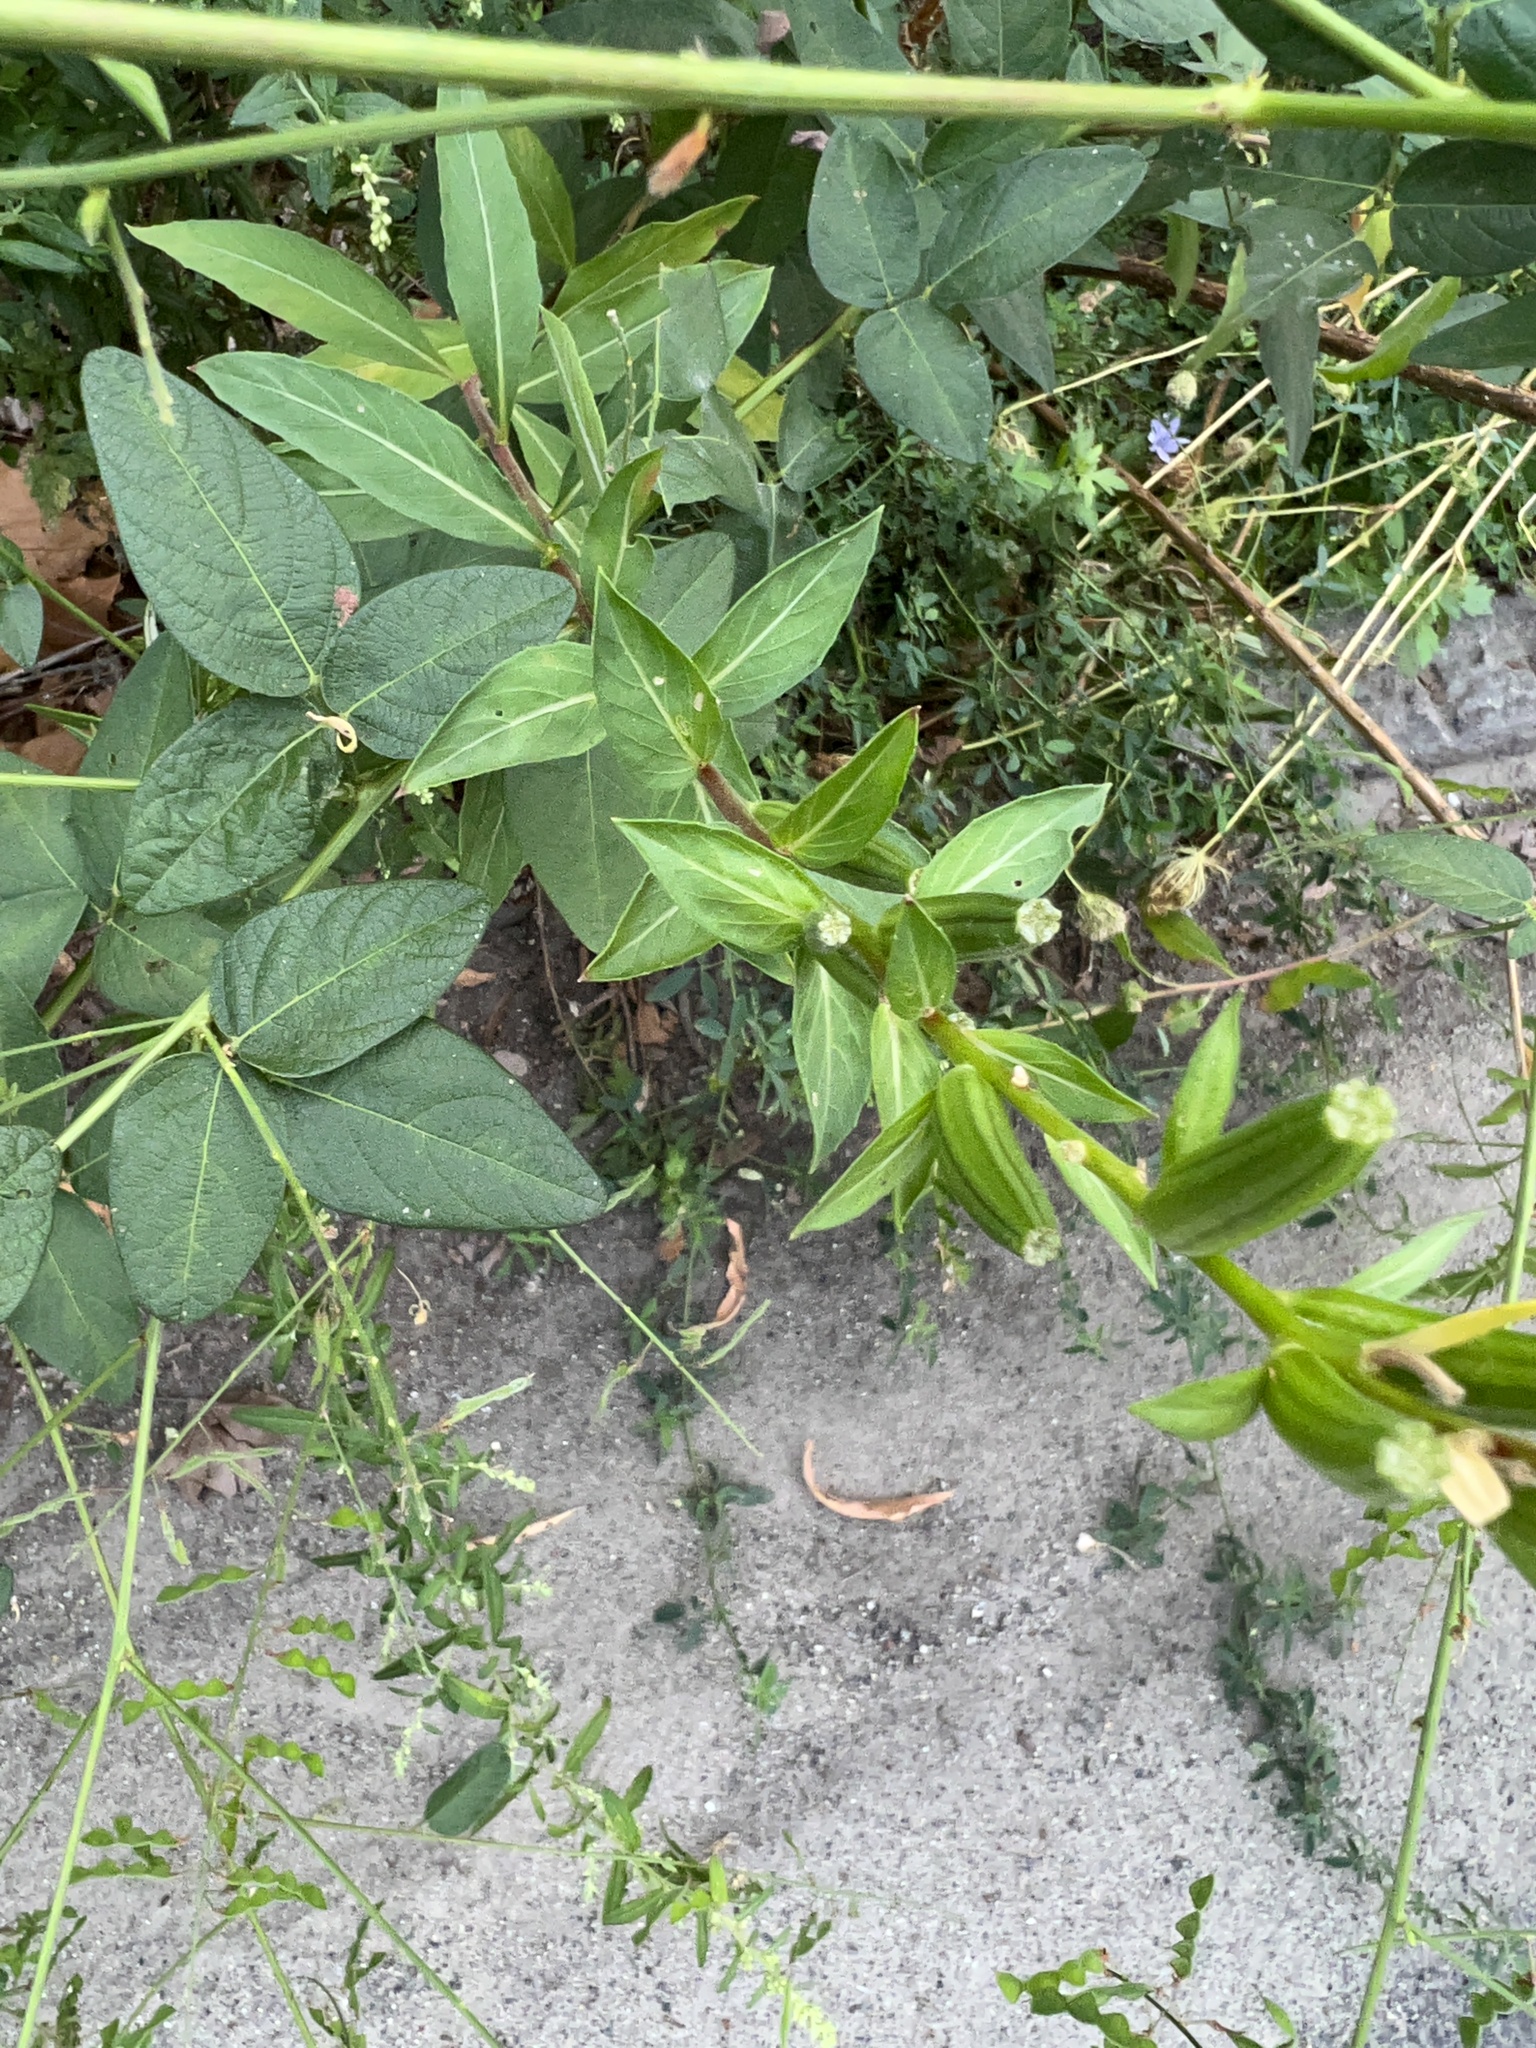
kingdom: Plantae
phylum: Tracheophyta
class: Magnoliopsida
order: Myrtales
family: Onagraceae
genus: Oenothera
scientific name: Oenothera biennis
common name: Common evening-primrose
